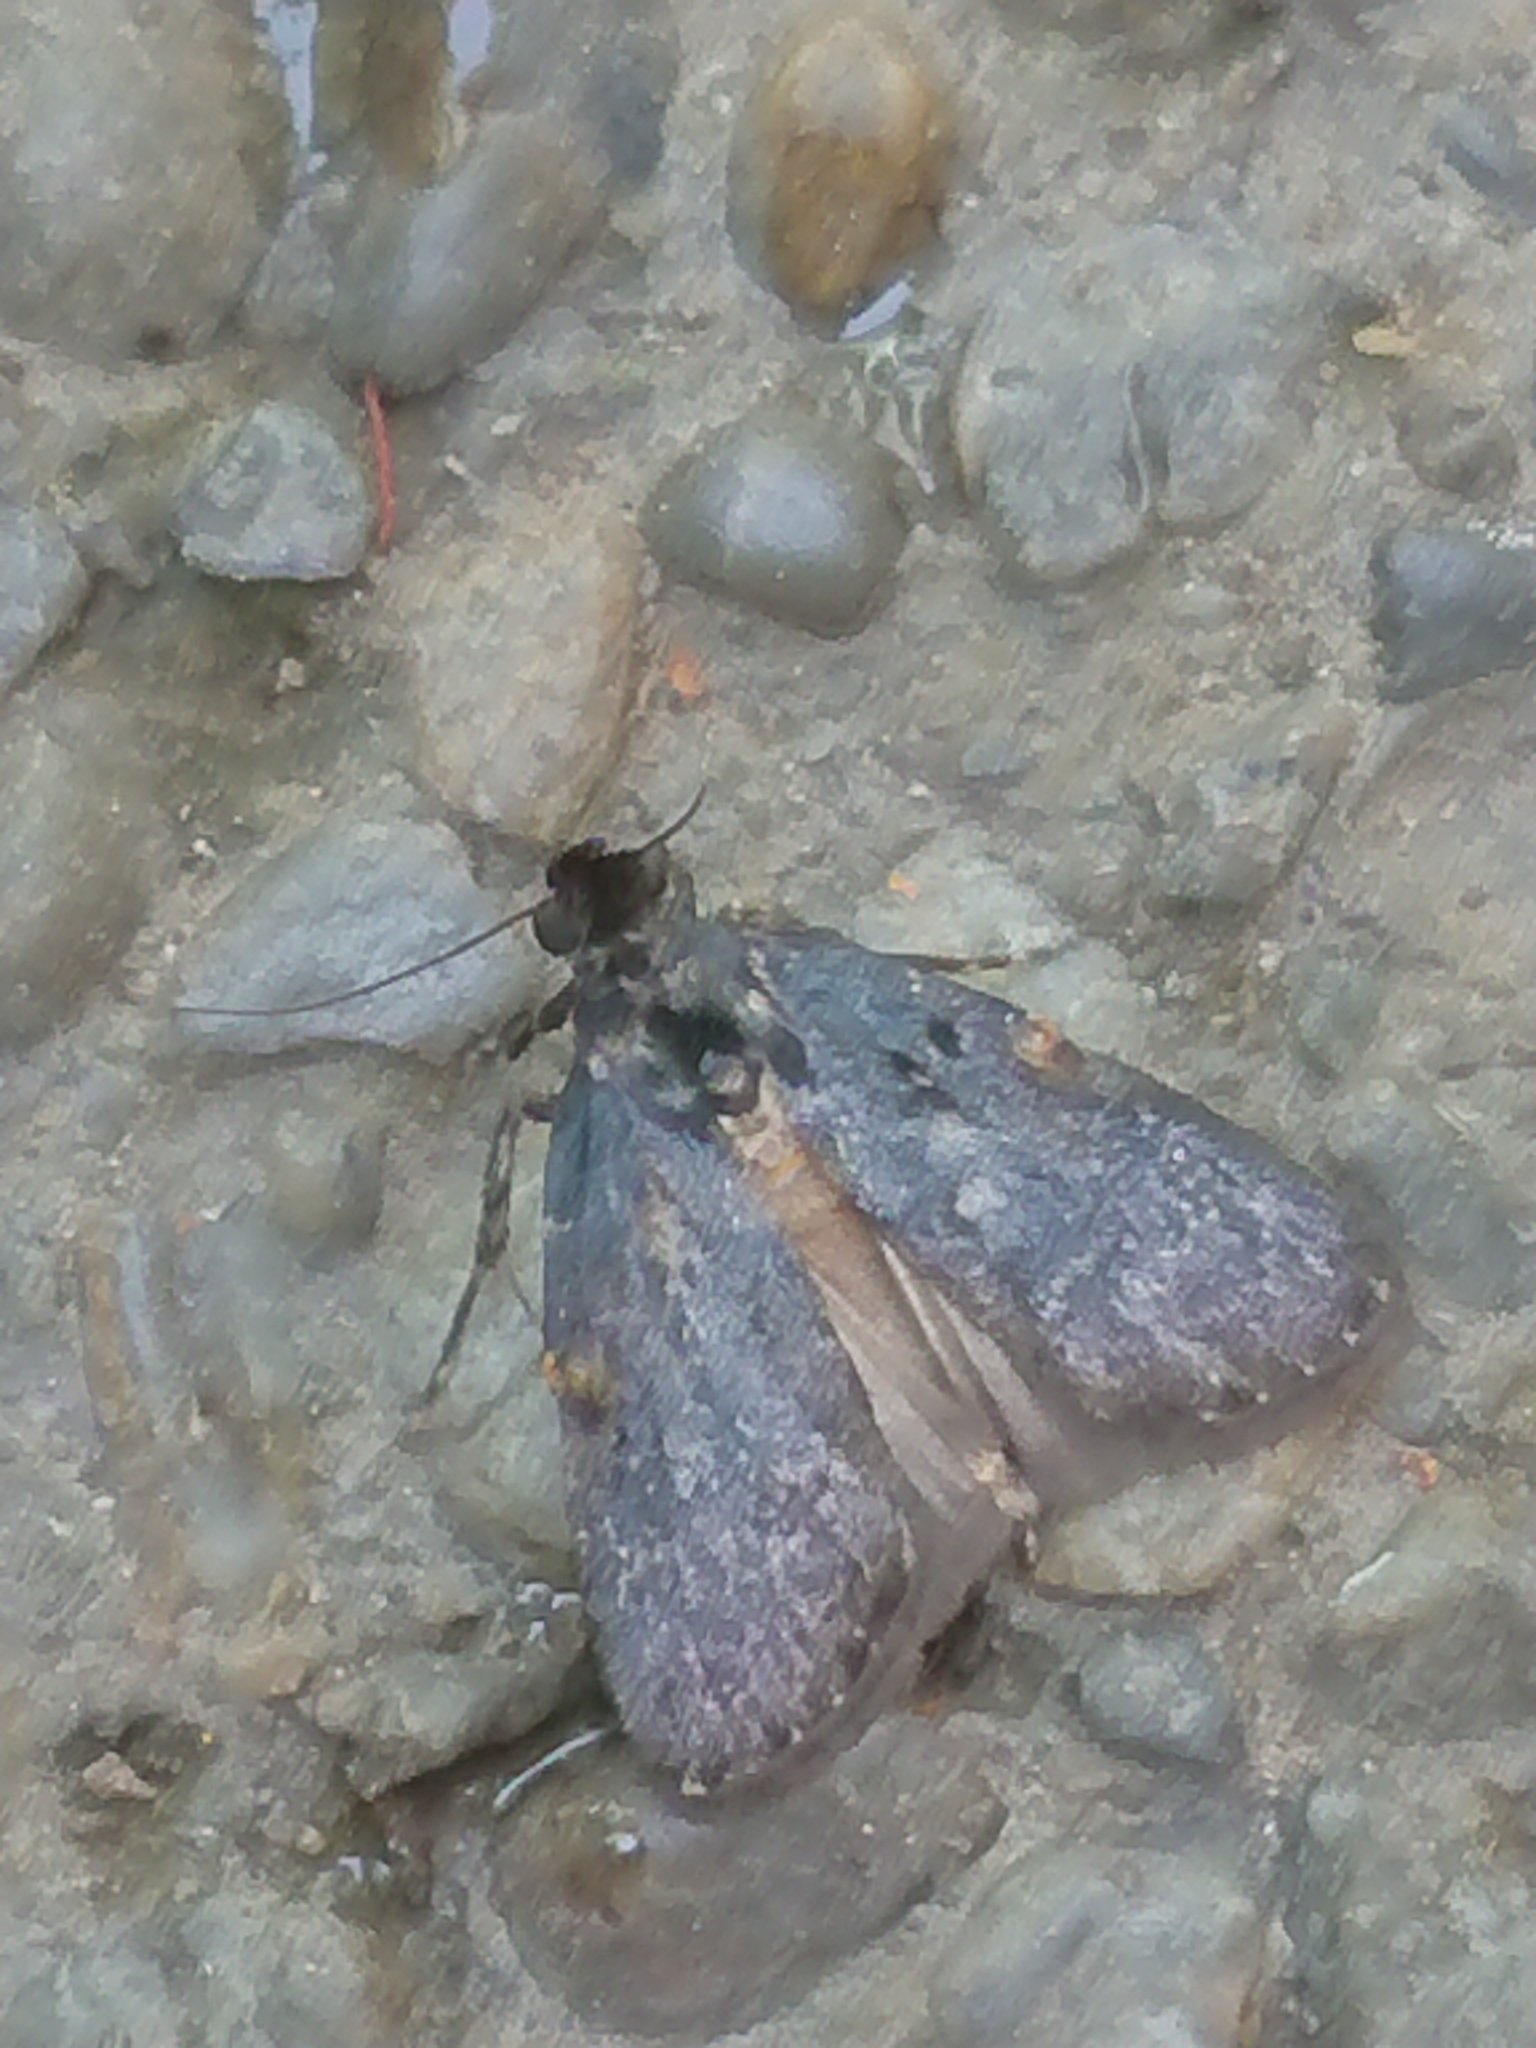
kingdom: Animalia
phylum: Arthropoda
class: Insecta
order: Lepidoptera
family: Pyralidae
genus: Stericta
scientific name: Stericta carbonalis
